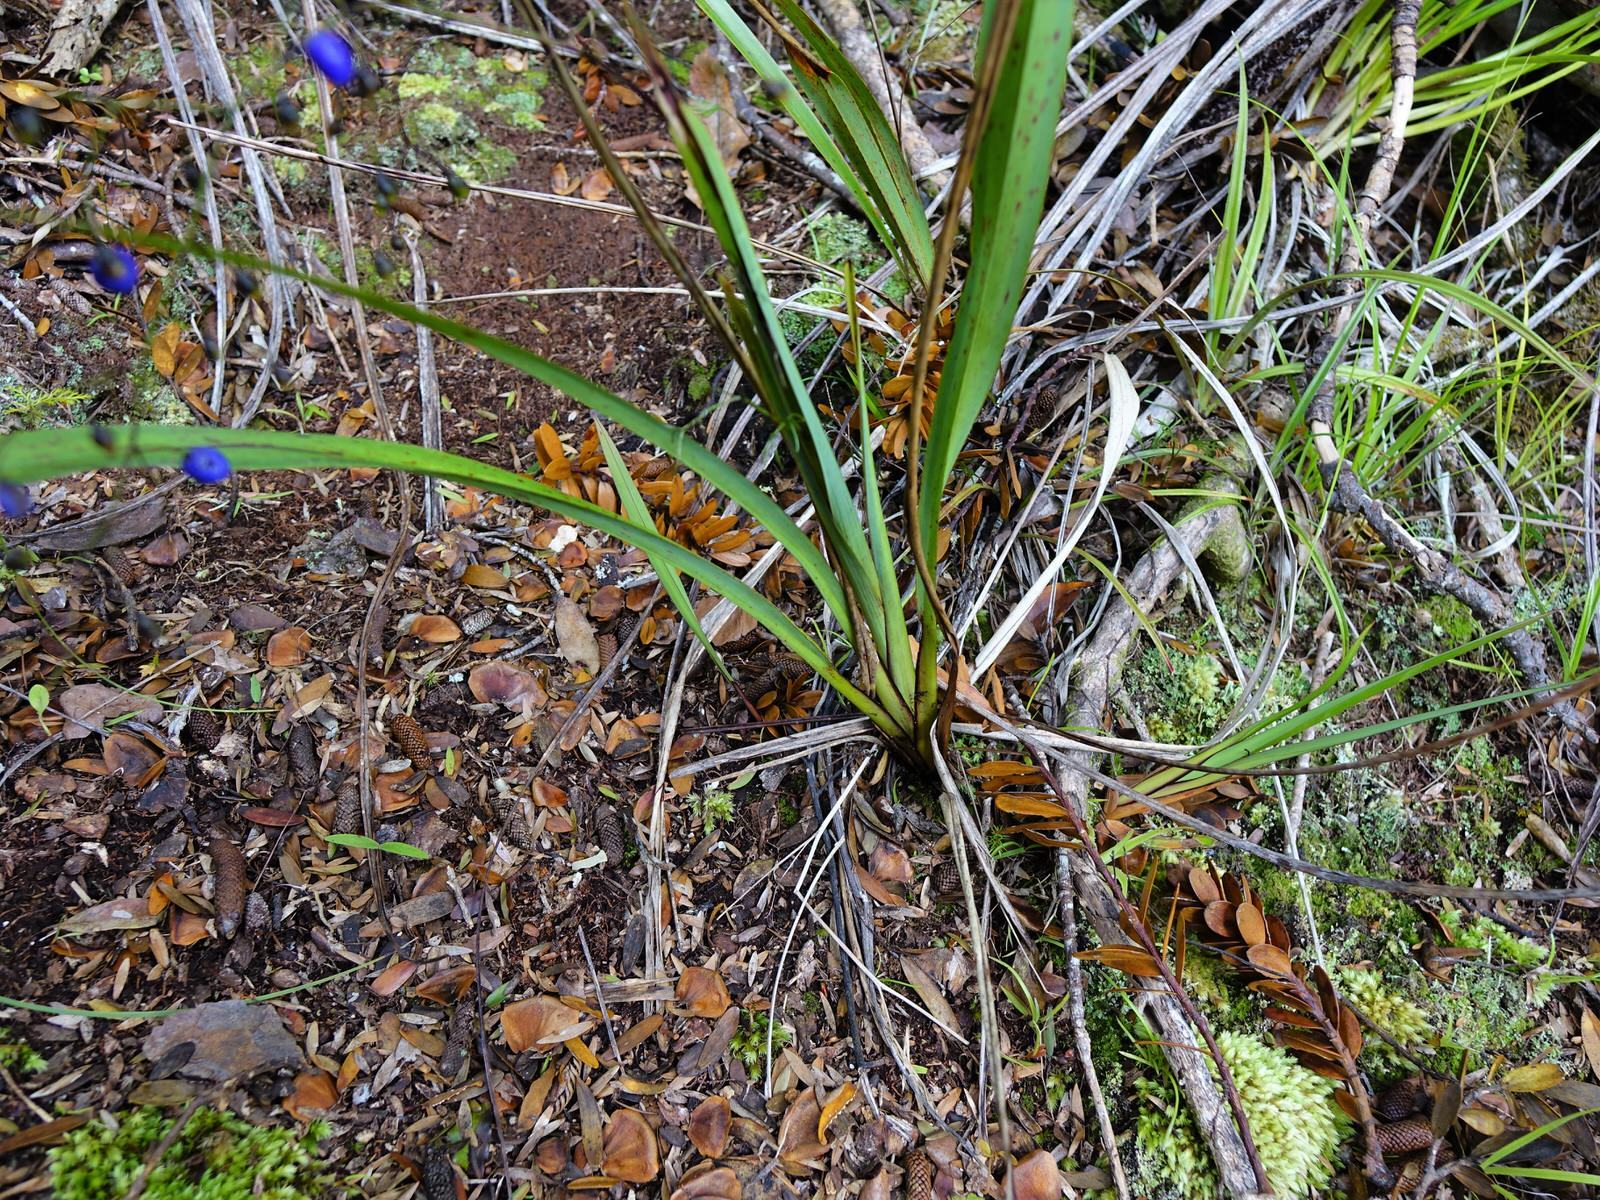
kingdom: Plantae
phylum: Tracheophyta
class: Liliopsida
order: Asparagales
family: Asphodelaceae
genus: Dianella
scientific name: Dianella nigra
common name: New zealand-blueberry
